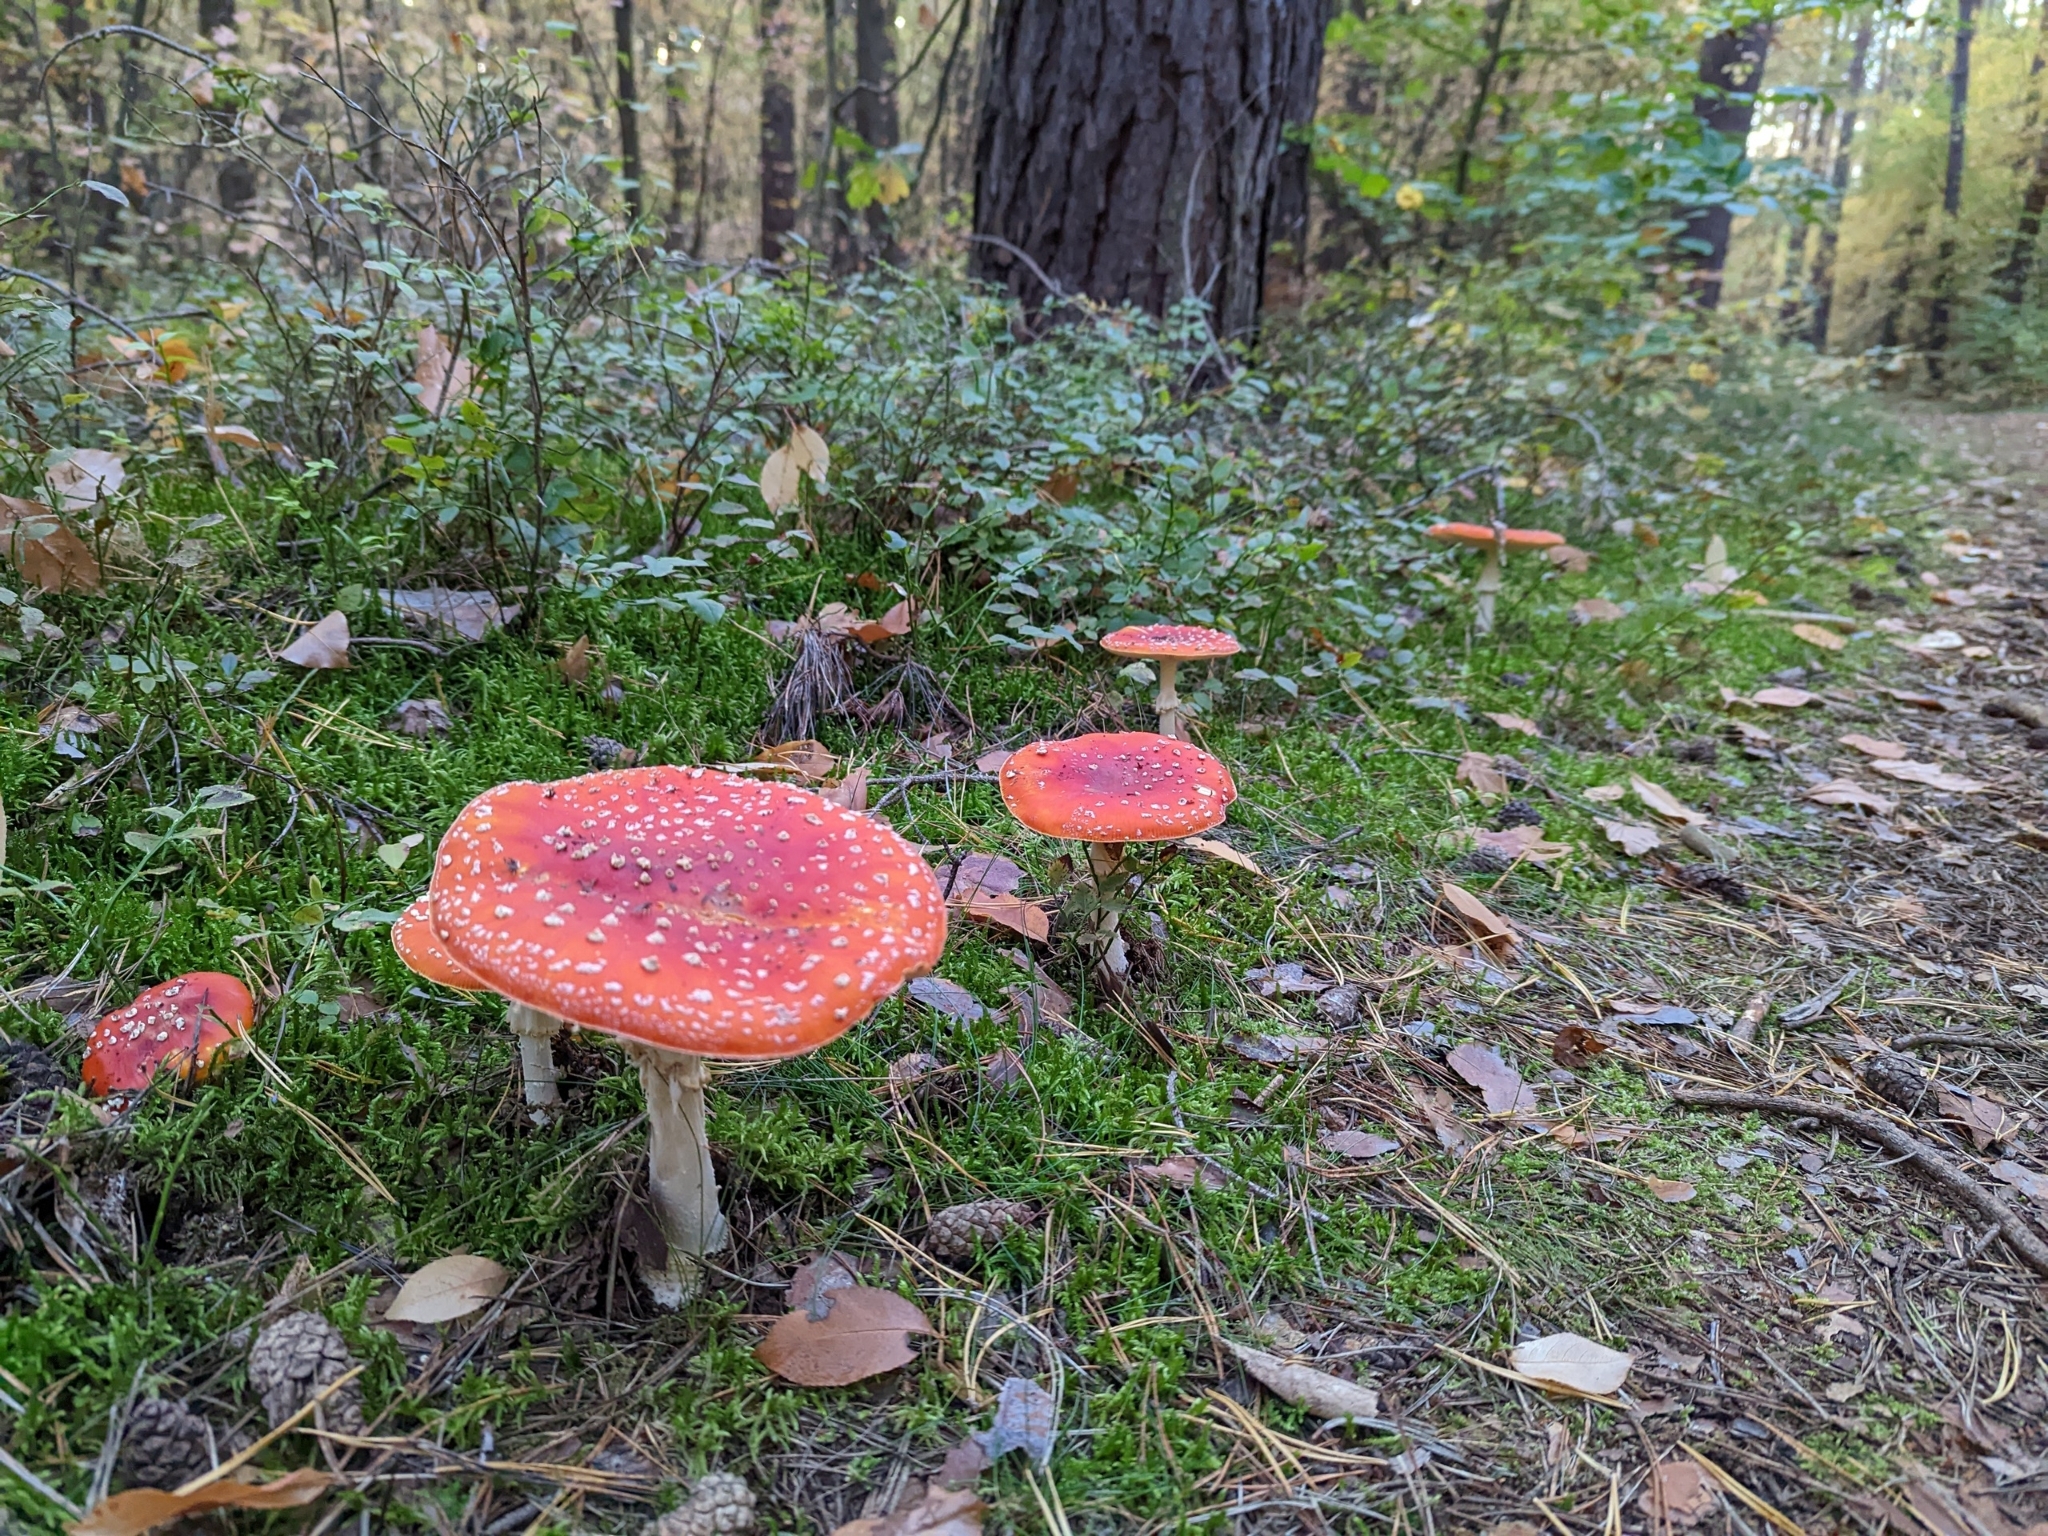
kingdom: Fungi
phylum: Basidiomycota
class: Agaricomycetes
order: Agaricales
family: Amanitaceae
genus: Amanita
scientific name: Amanita muscaria
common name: Fly agaric
